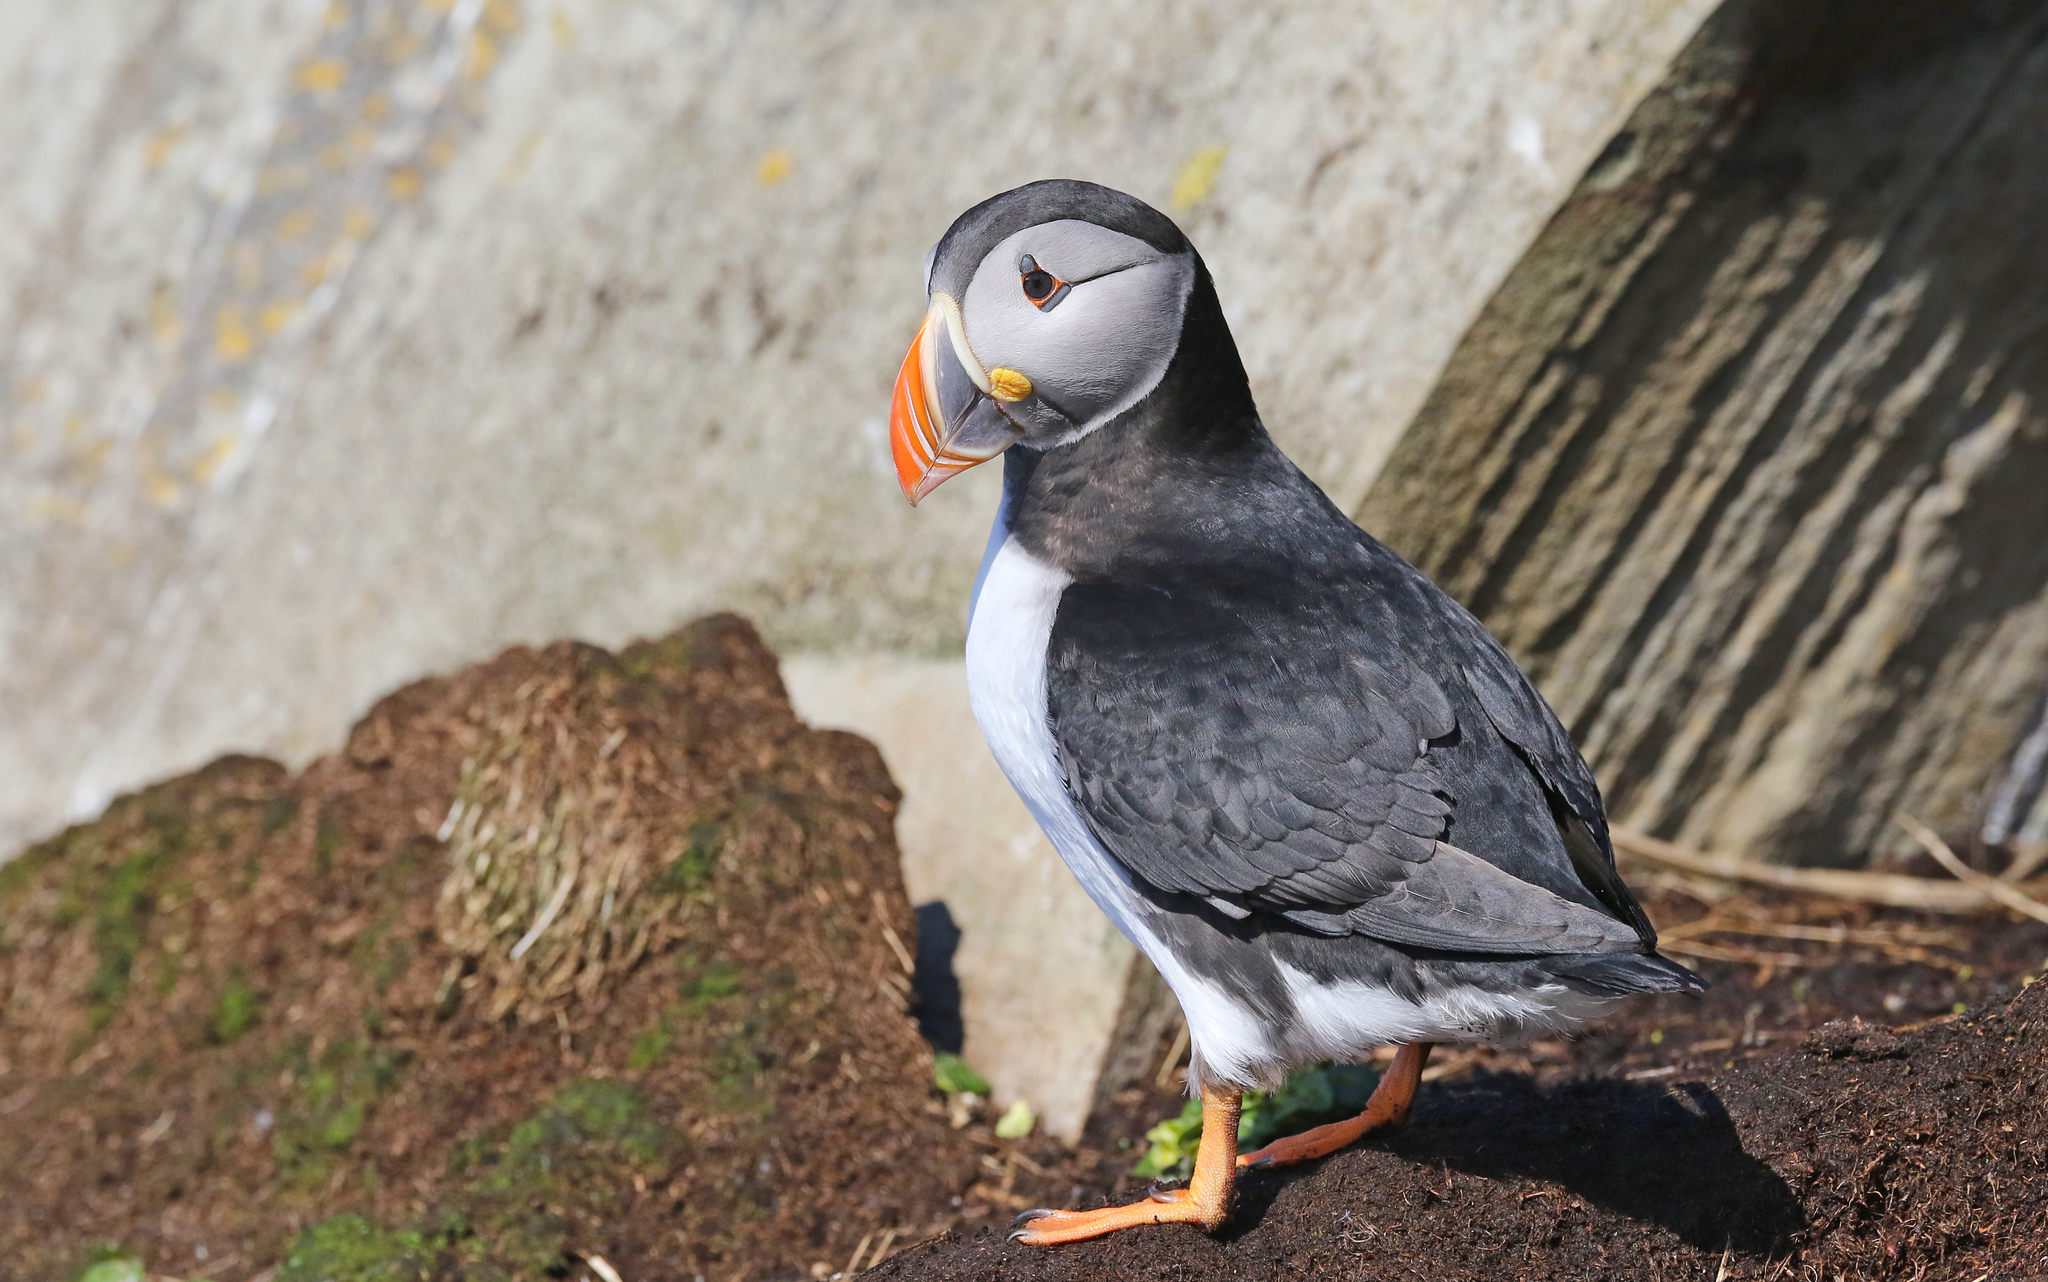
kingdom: Animalia
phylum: Chordata
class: Aves
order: Charadriiformes
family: Alcidae
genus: Fratercula
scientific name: Fratercula arctica
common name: Atlantic puffin
